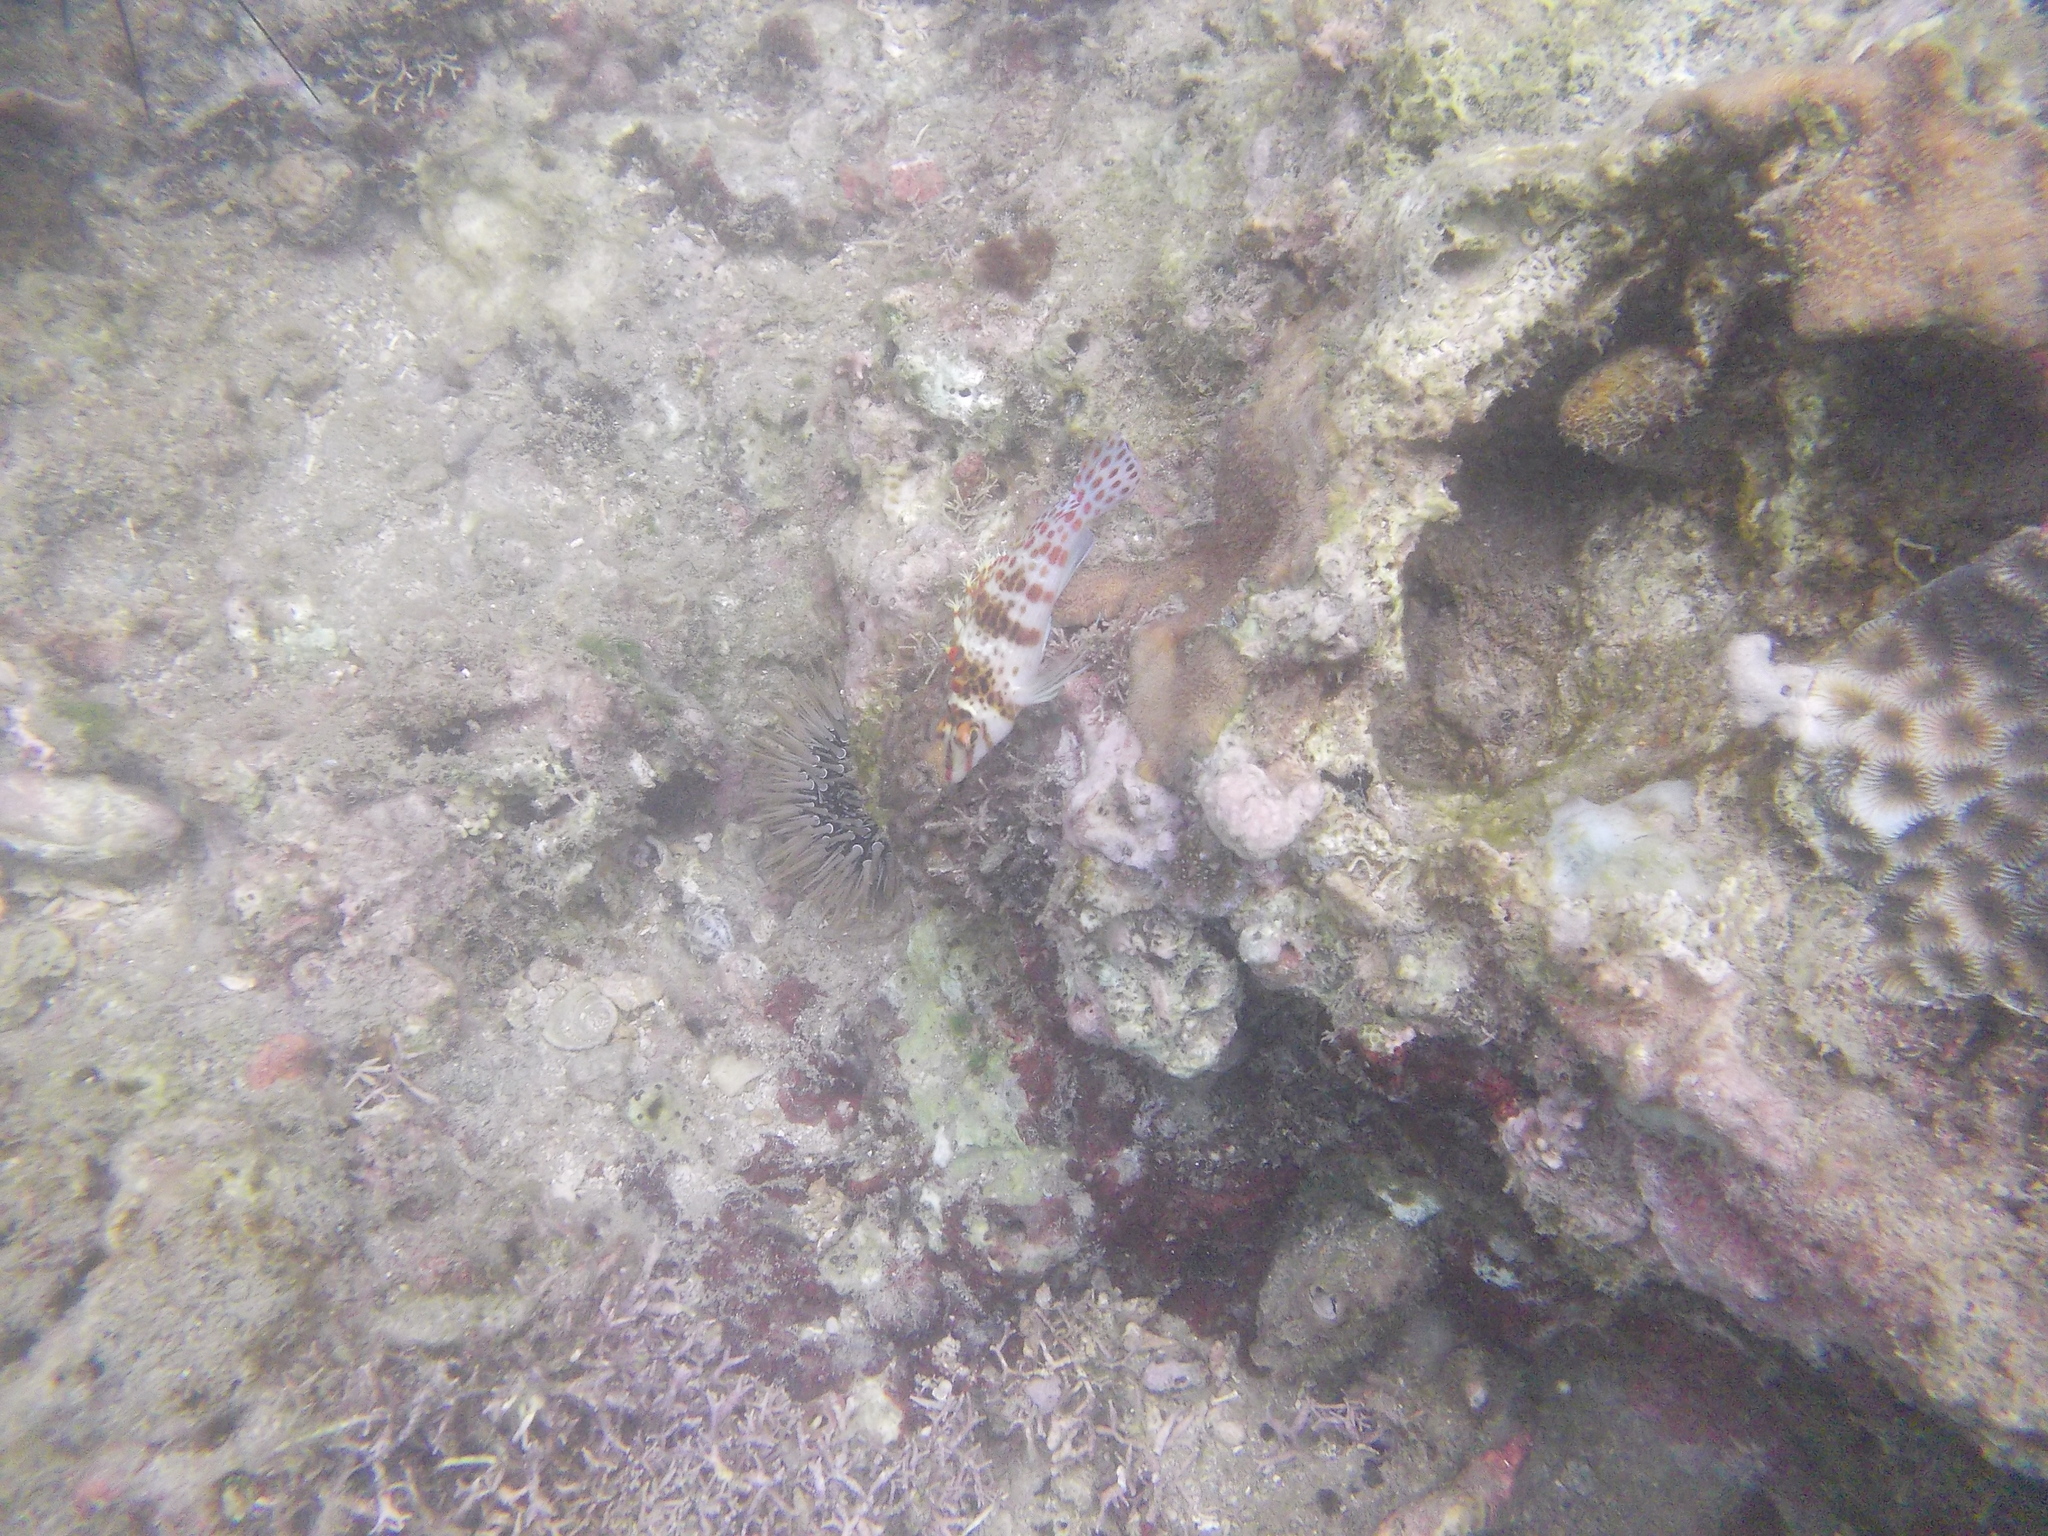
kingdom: Animalia
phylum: Chordata
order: Perciformes
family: Cirrhitidae
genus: Cirrhitichthys
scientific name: Cirrhitichthys falco
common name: Coral hawkfish
